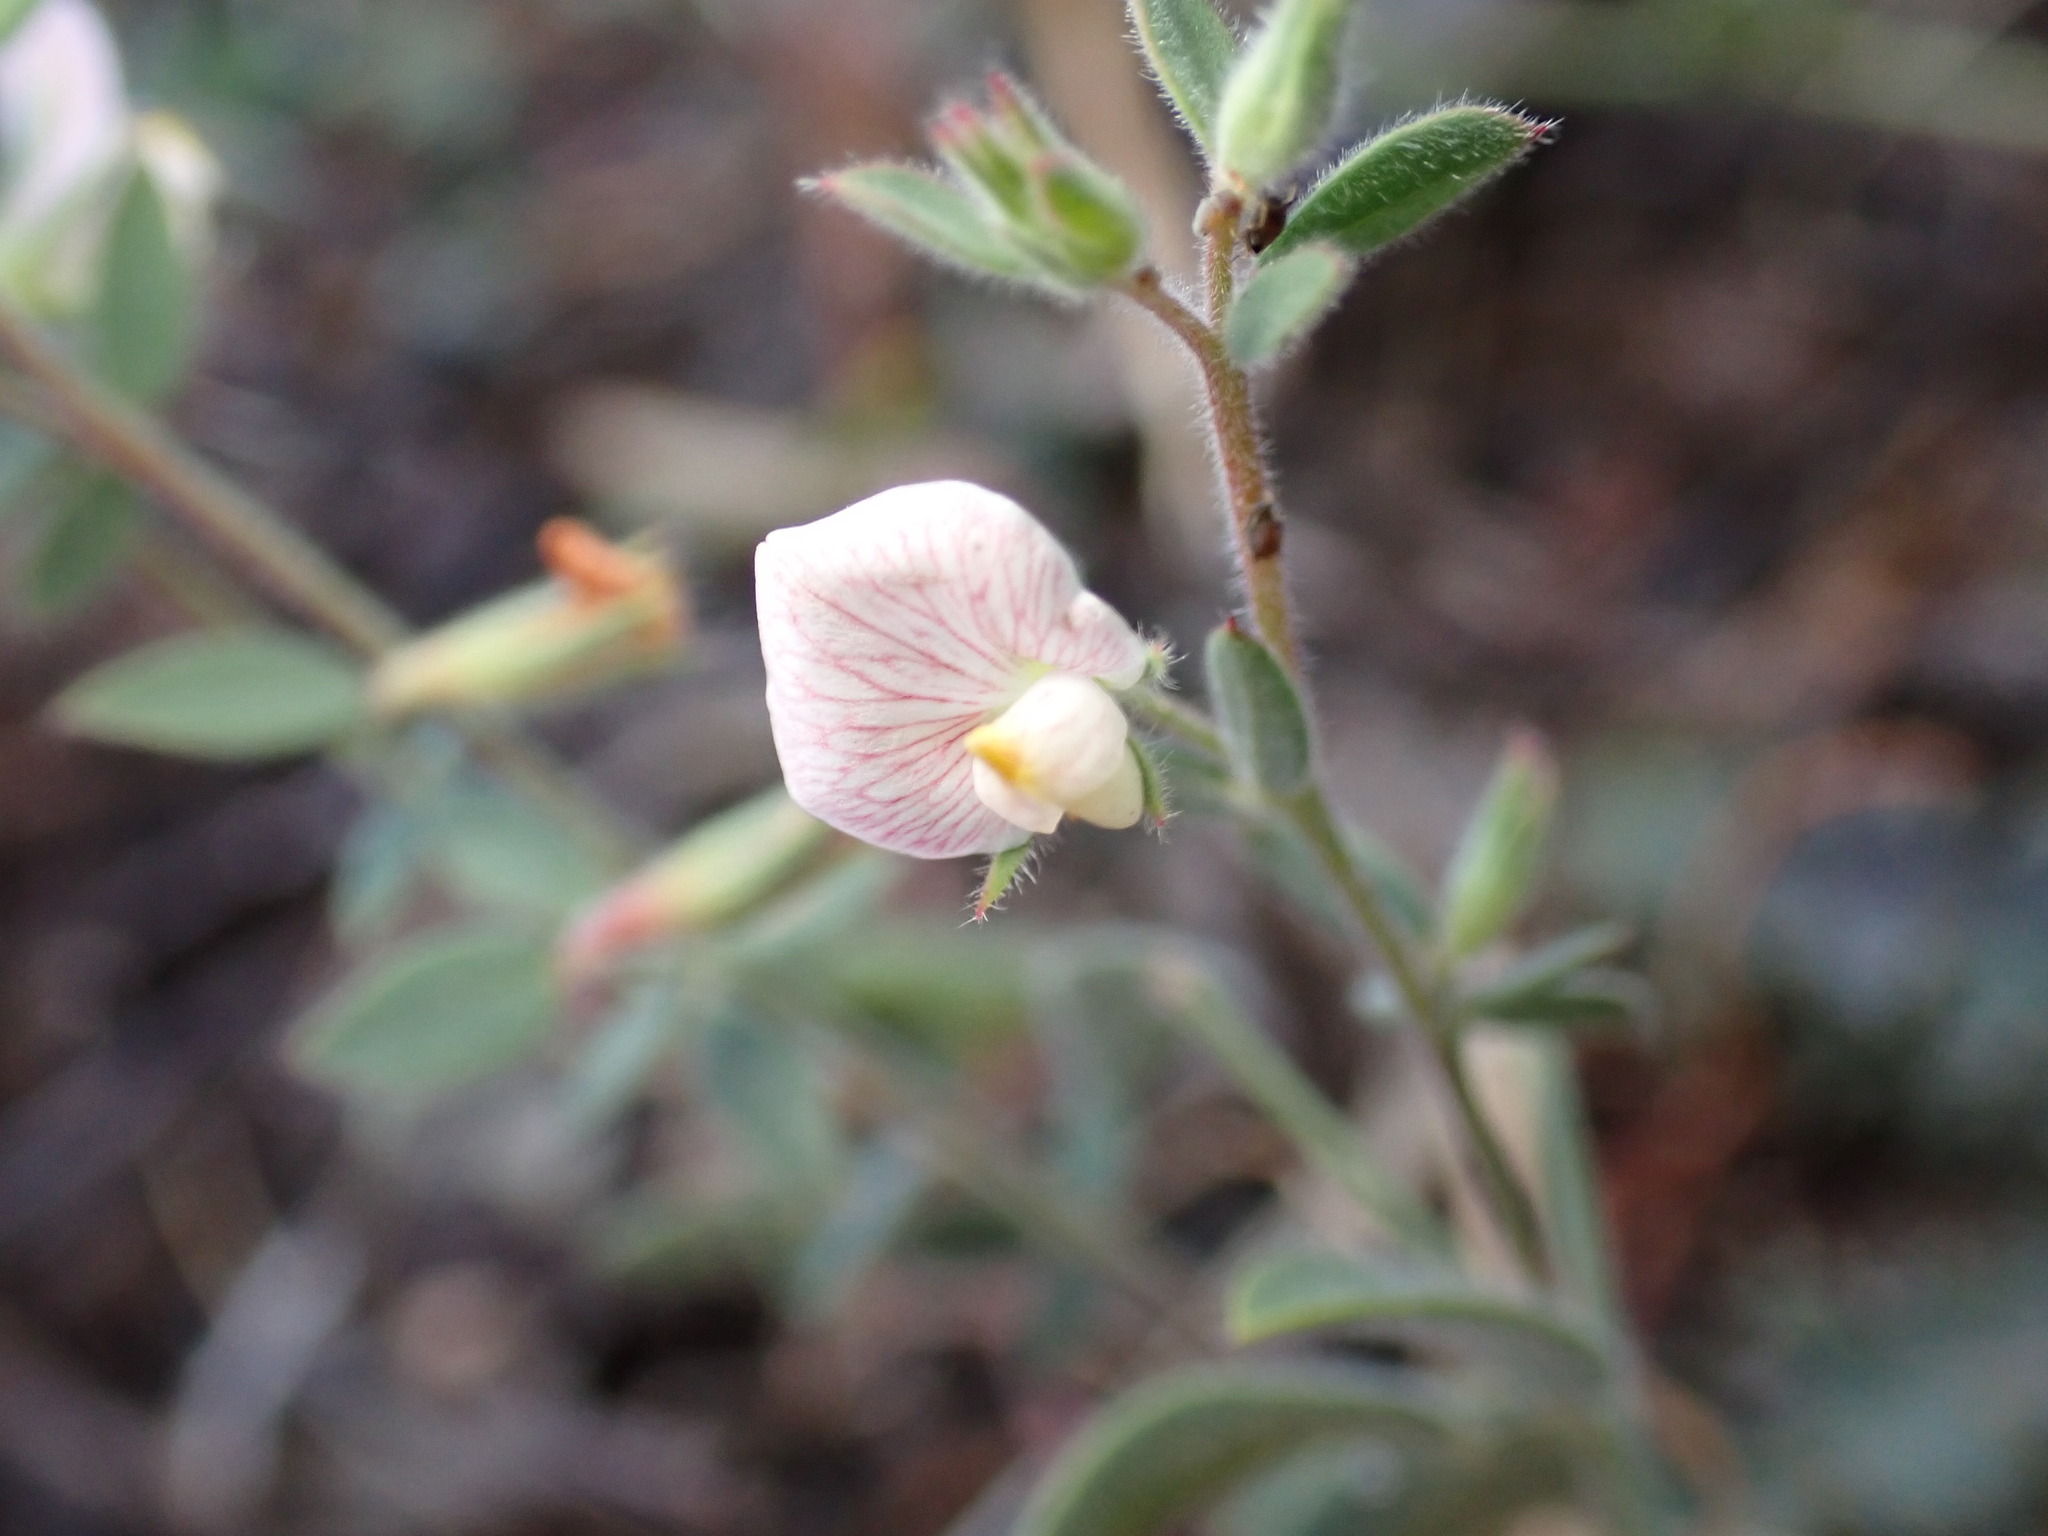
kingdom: Plantae
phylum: Tracheophyta
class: Magnoliopsida
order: Fabales
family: Fabaceae
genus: Acmispon
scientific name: Acmispon americanus
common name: American bird's-foot trefoil
